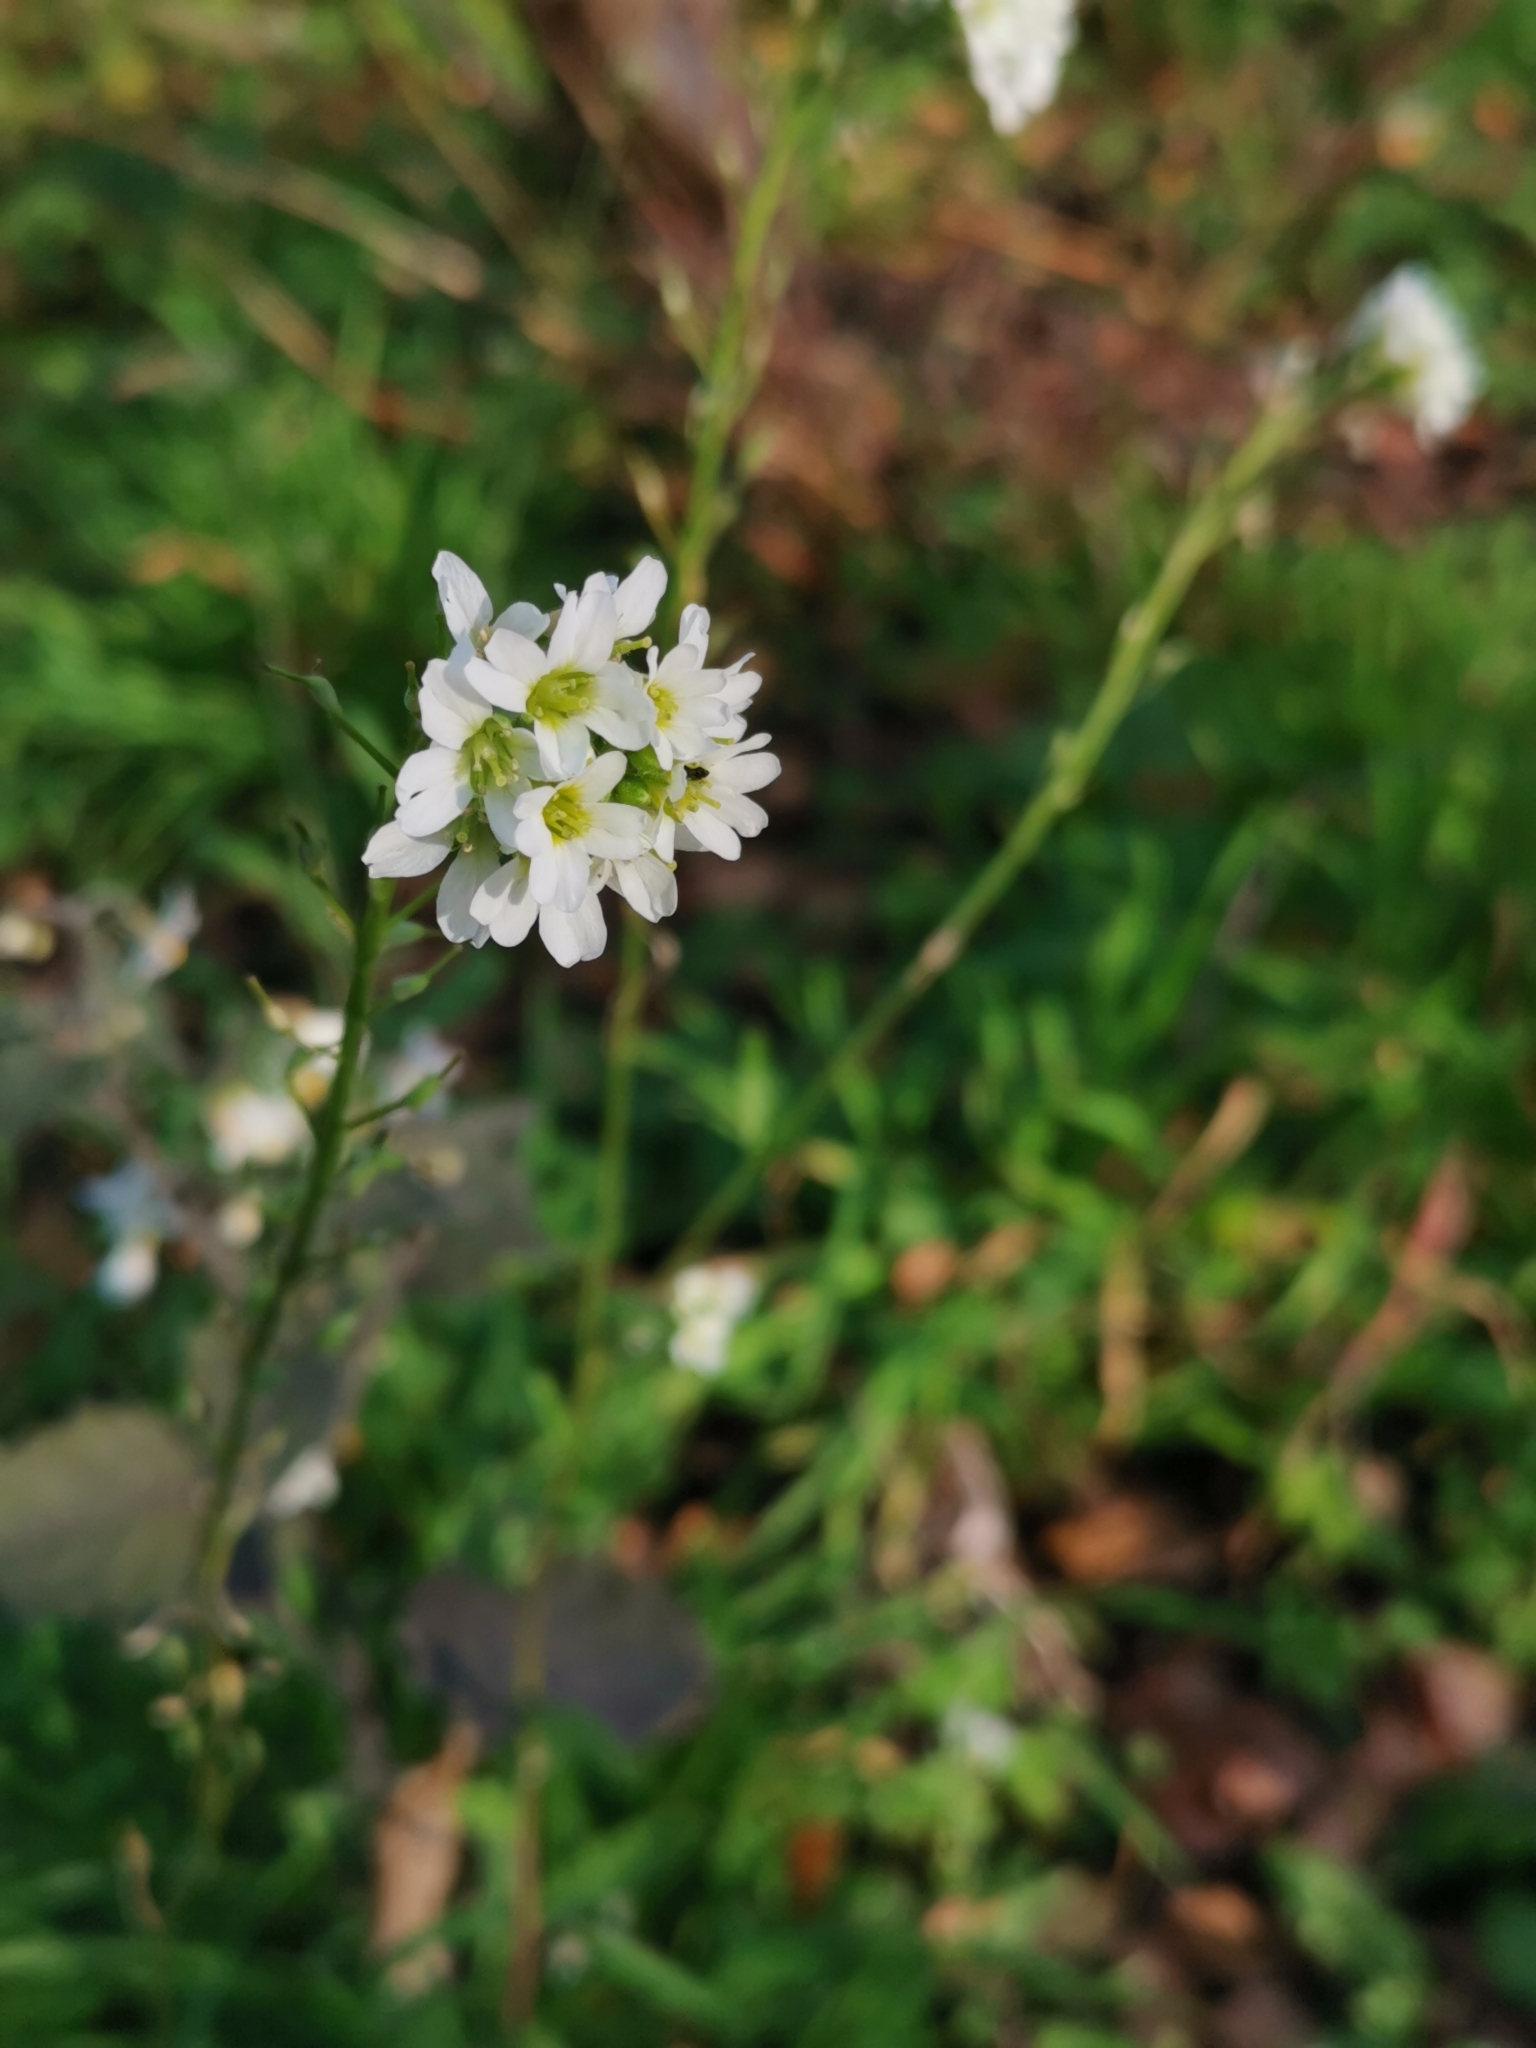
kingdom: Plantae
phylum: Tracheophyta
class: Magnoliopsida
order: Brassicales
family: Brassicaceae
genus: Berteroa
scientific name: Berteroa incana
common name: Hoary alison
